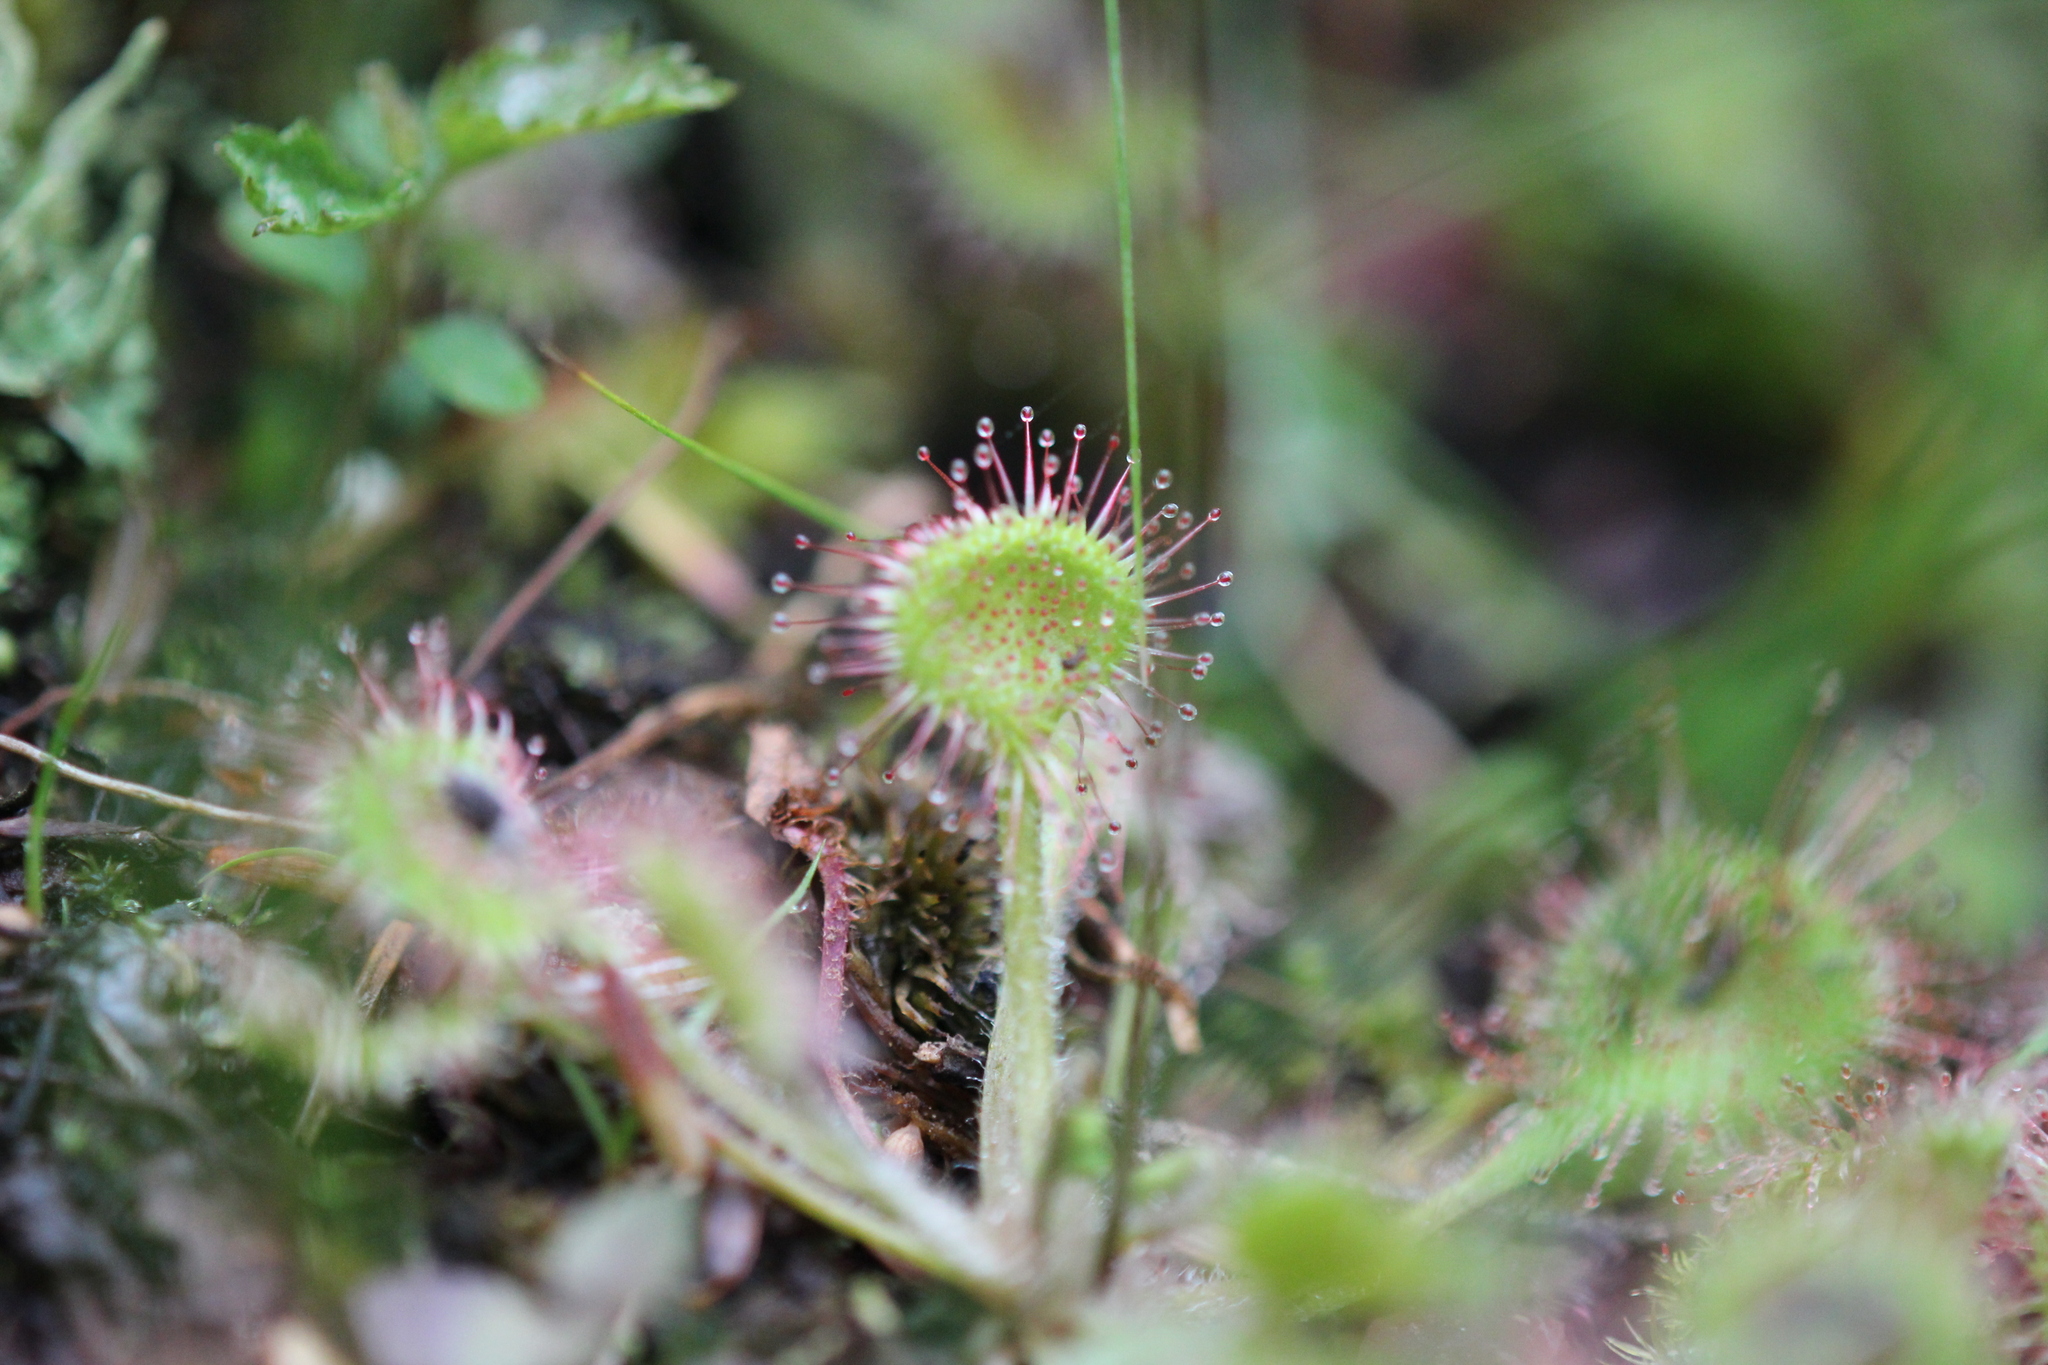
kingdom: Plantae
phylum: Tracheophyta
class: Magnoliopsida
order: Caryophyllales
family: Droseraceae
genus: Drosera
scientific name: Drosera rotundifolia
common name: Round-leaved sundew
